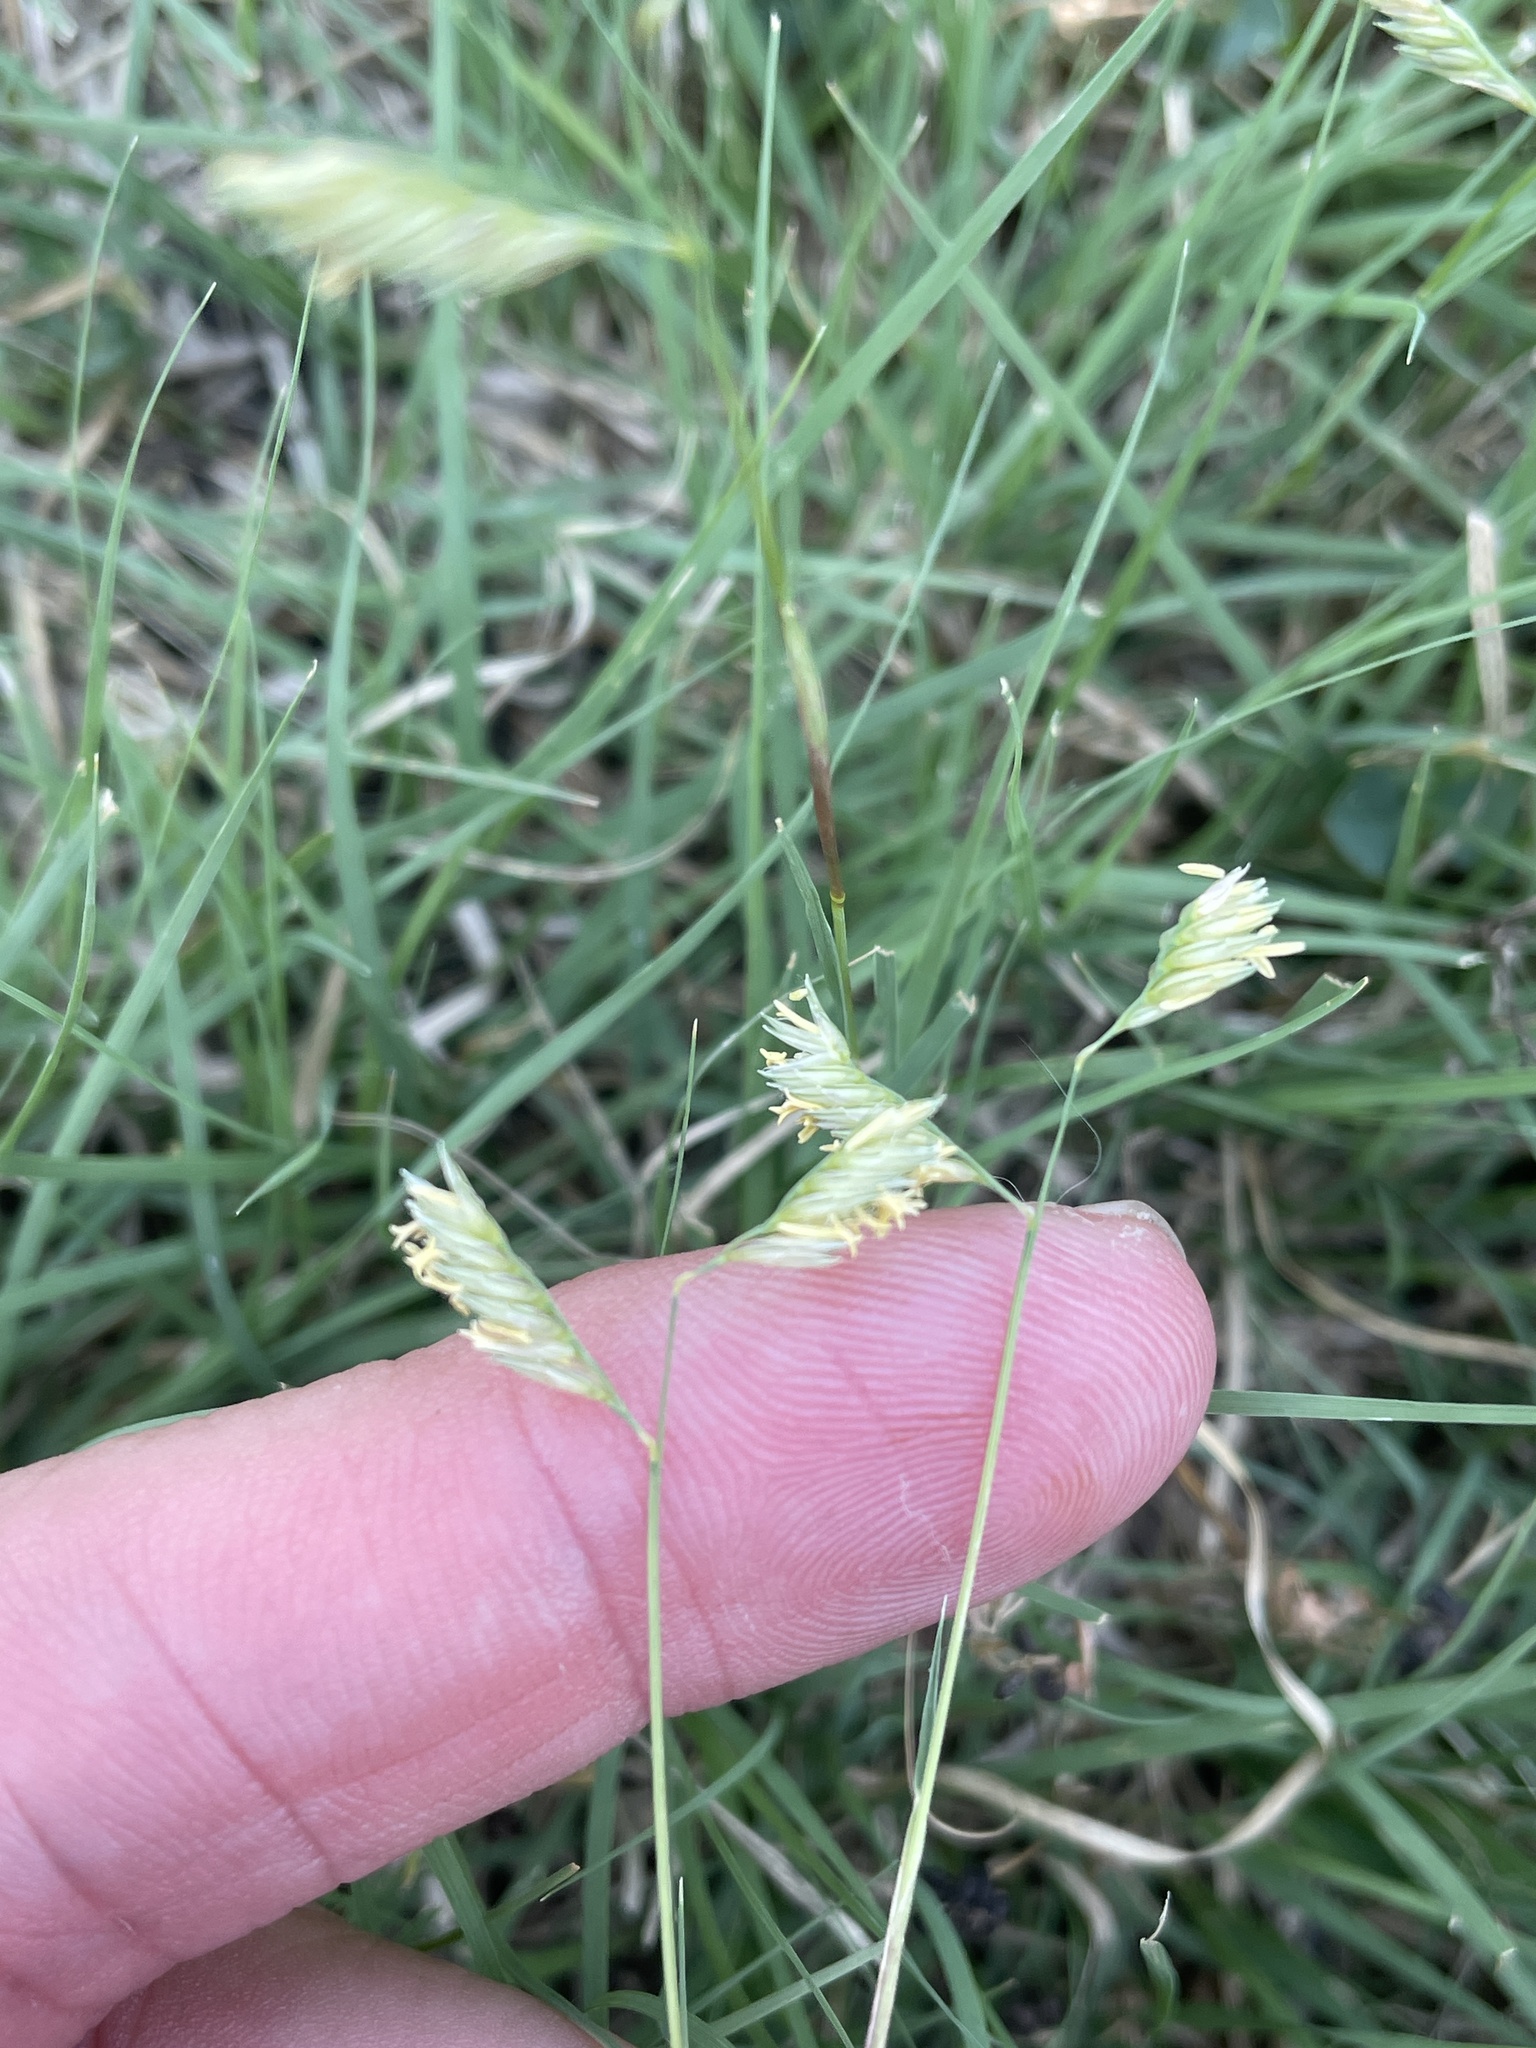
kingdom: Plantae
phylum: Tracheophyta
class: Liliopsida
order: Poales
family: Poaceae
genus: Bouteloua
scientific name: Bouteloua dactyloides
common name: Buffalo grass
